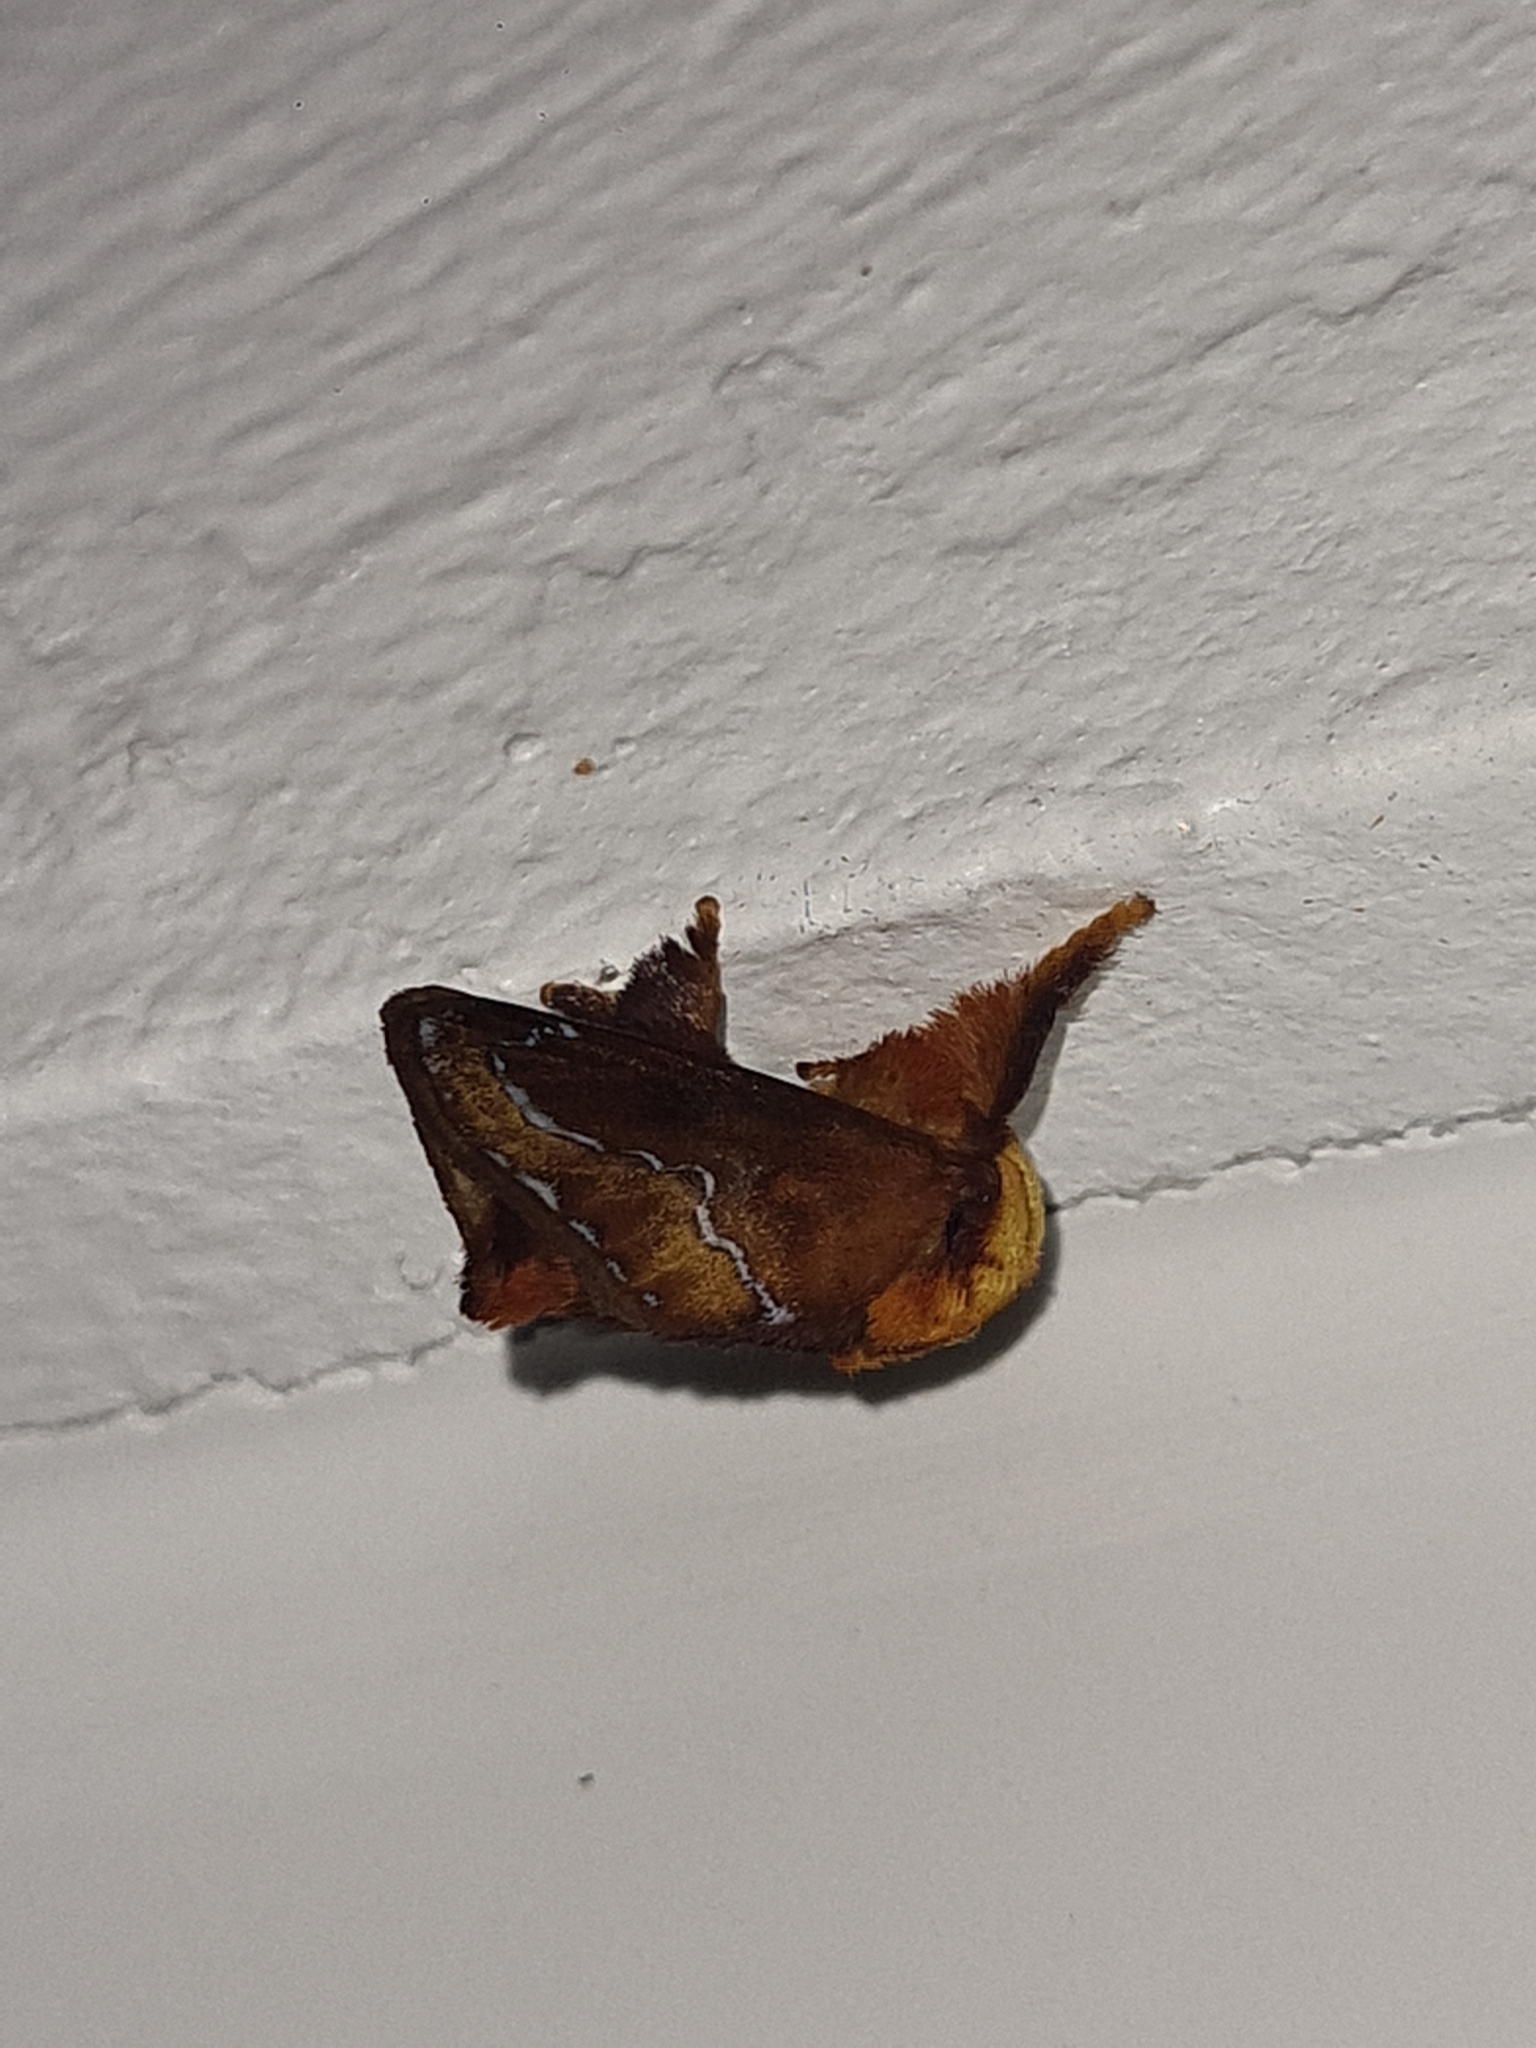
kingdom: Animalia
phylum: Arthropoda
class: Insecta
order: Lepidoptera
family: Limacodidae
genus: Miresa
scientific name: Miresa clarissa
